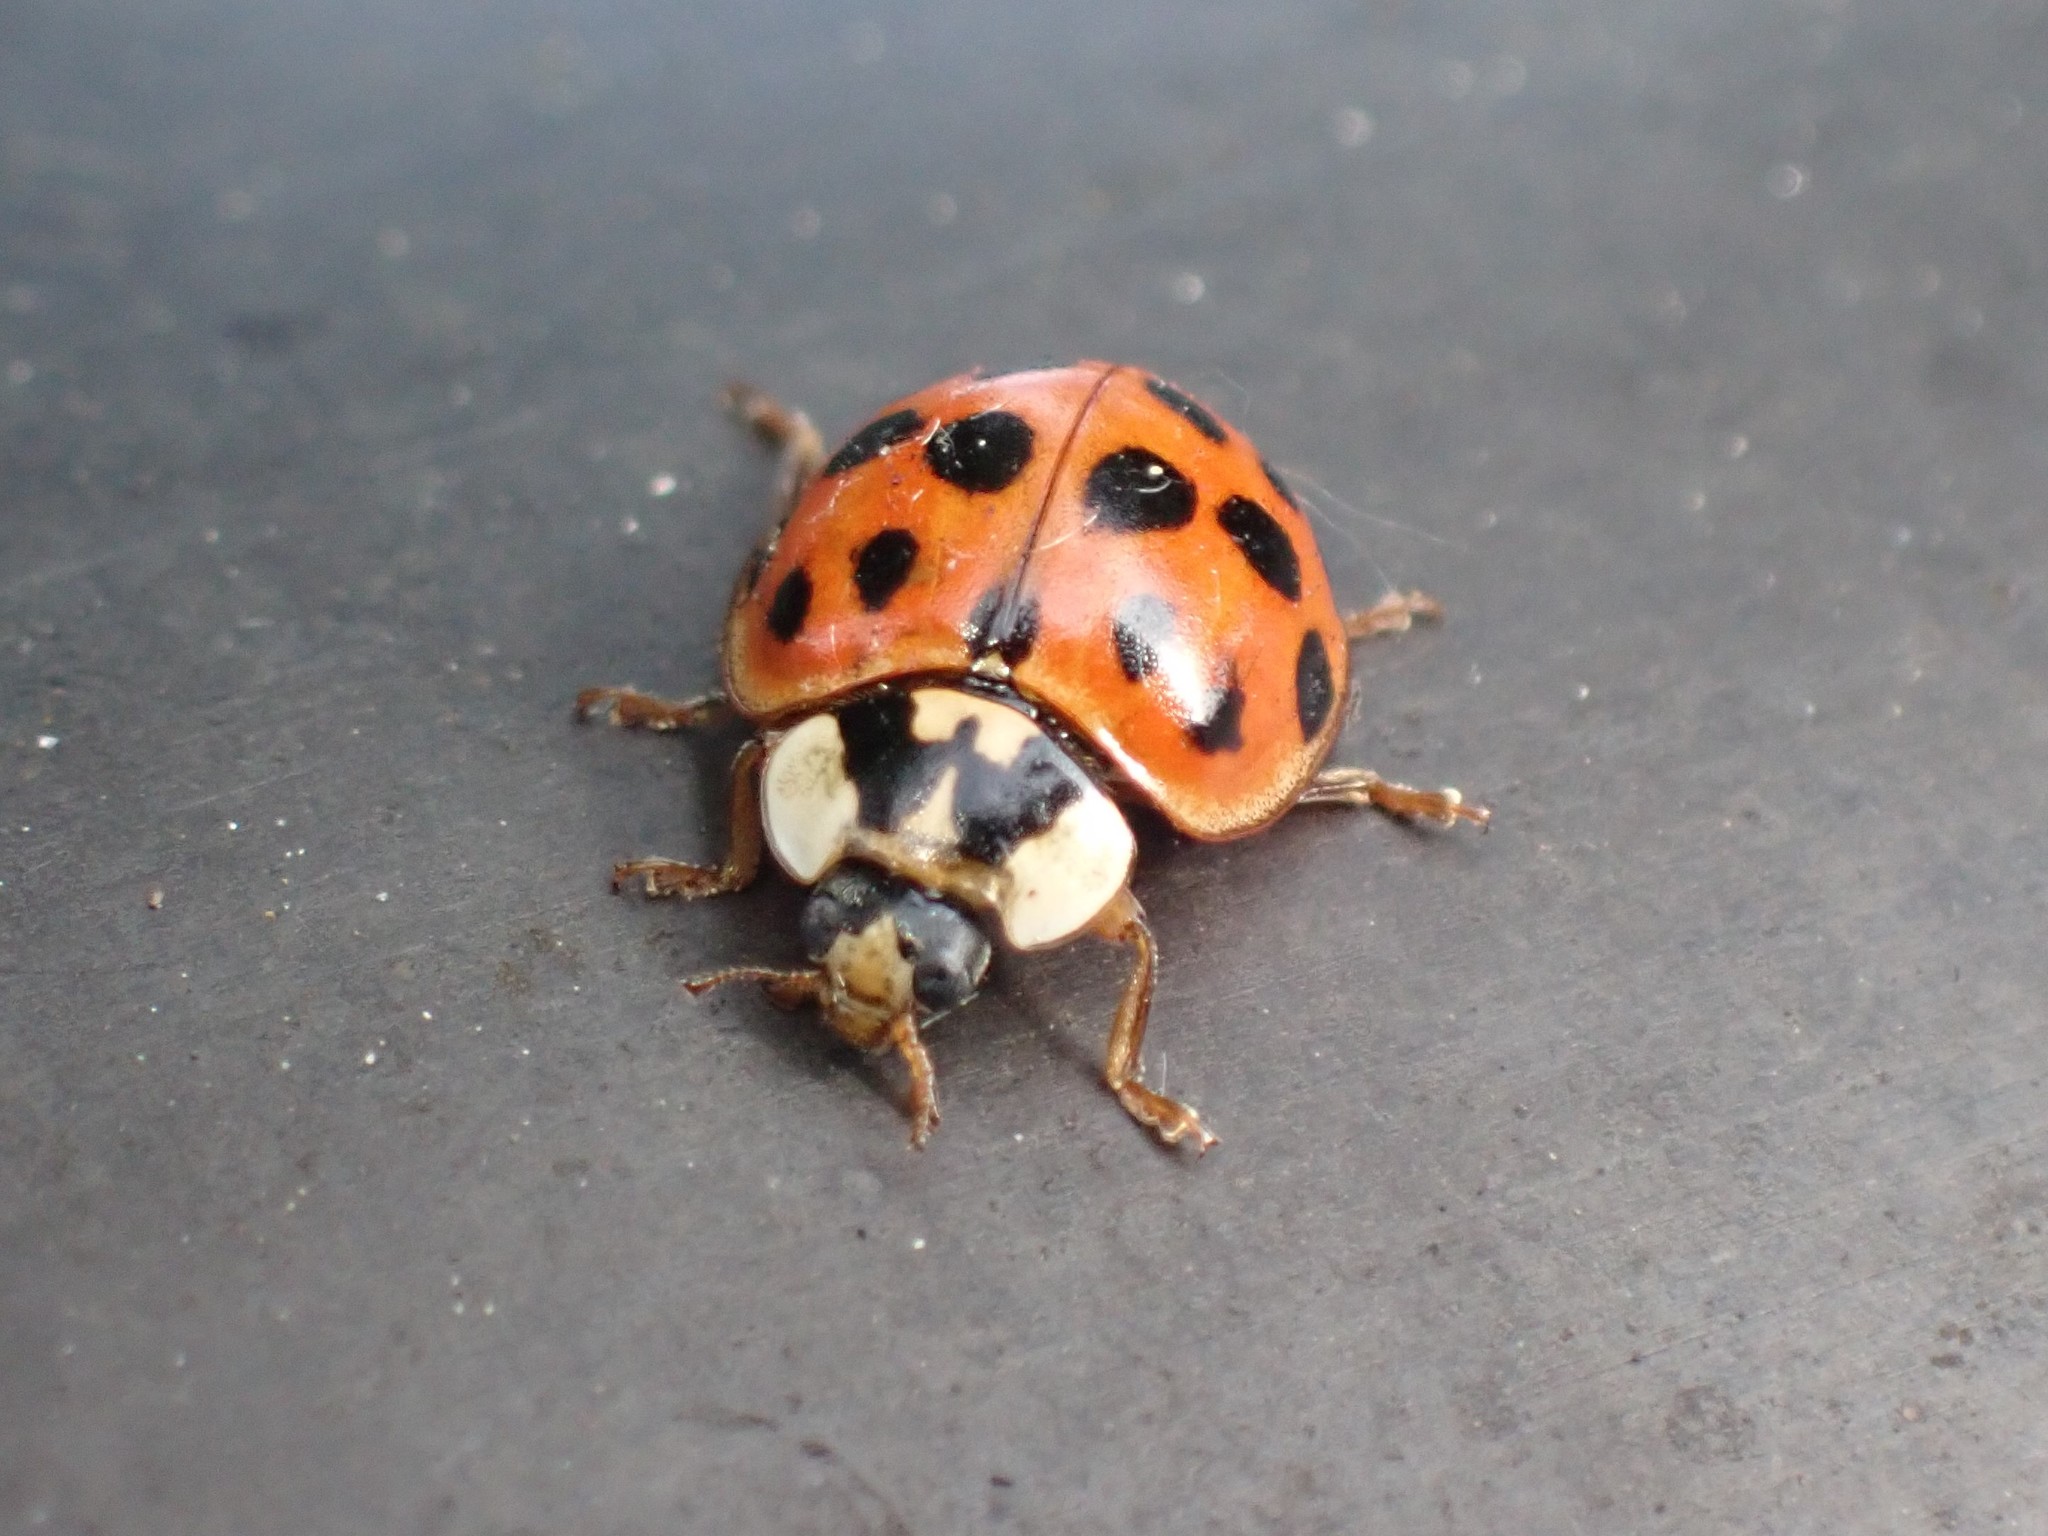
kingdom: Animalia
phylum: Arthropoda
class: Insecta
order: Coleoptera
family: Coccinellidae
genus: Harmonia
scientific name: Harmonia axyridis
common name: Harlequin ladybird
